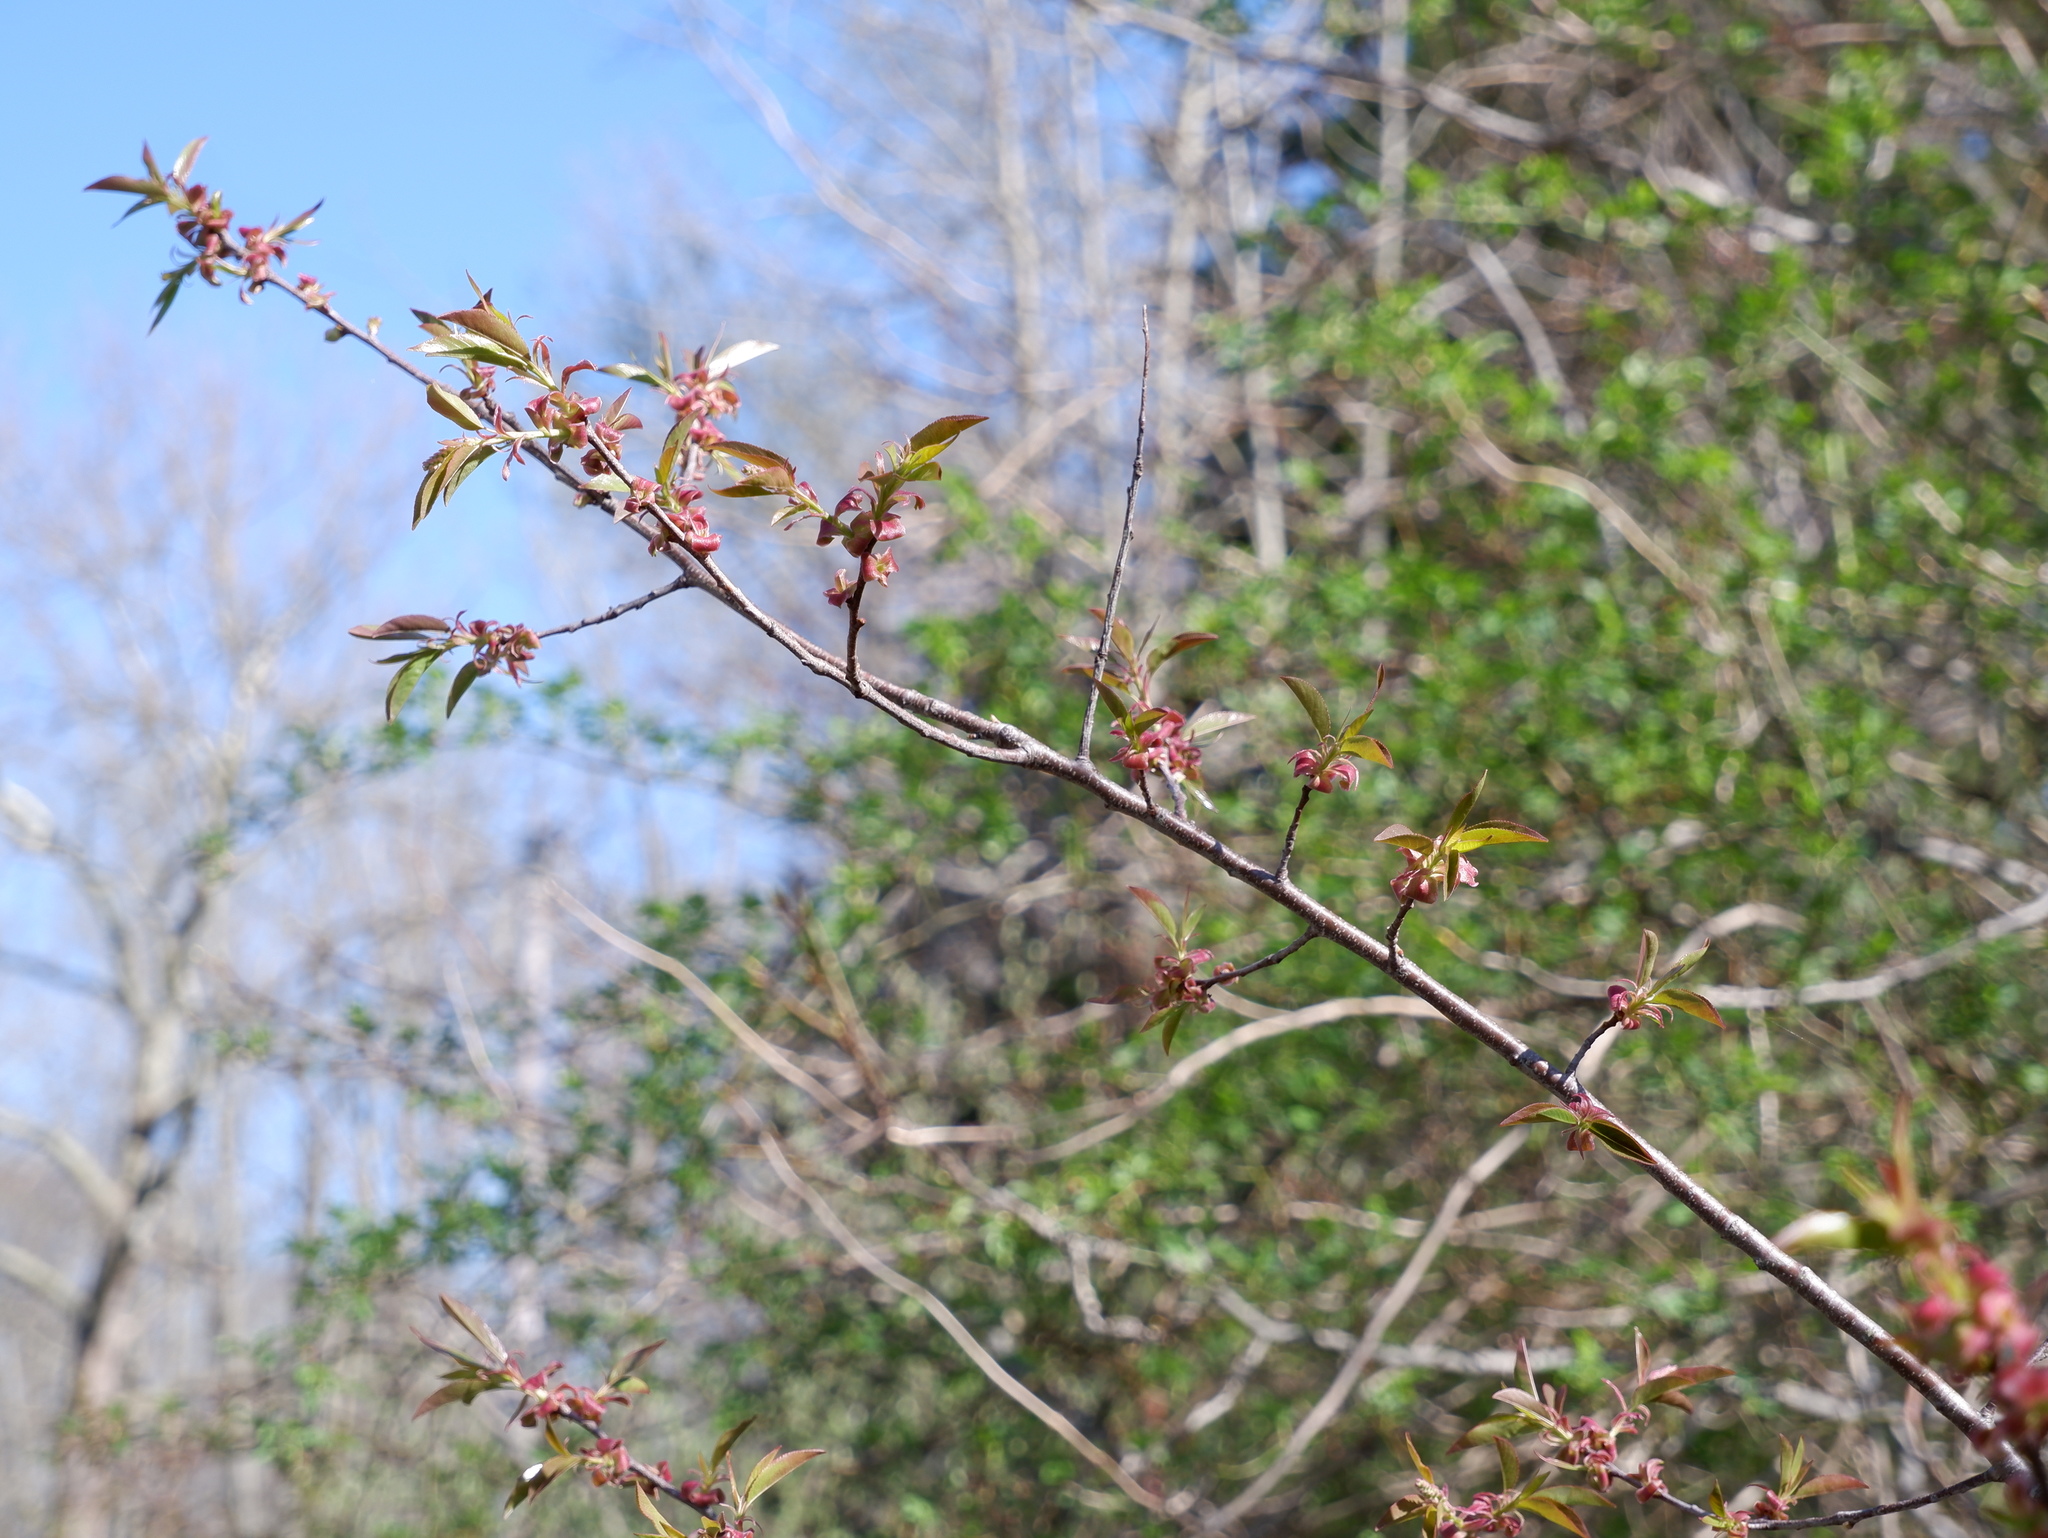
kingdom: Plantae
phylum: Tracheophyta
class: Magnoliopsida
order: Rosales
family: Rosaceae
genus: Prunus
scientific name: Prunus serotina
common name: Black cherry
